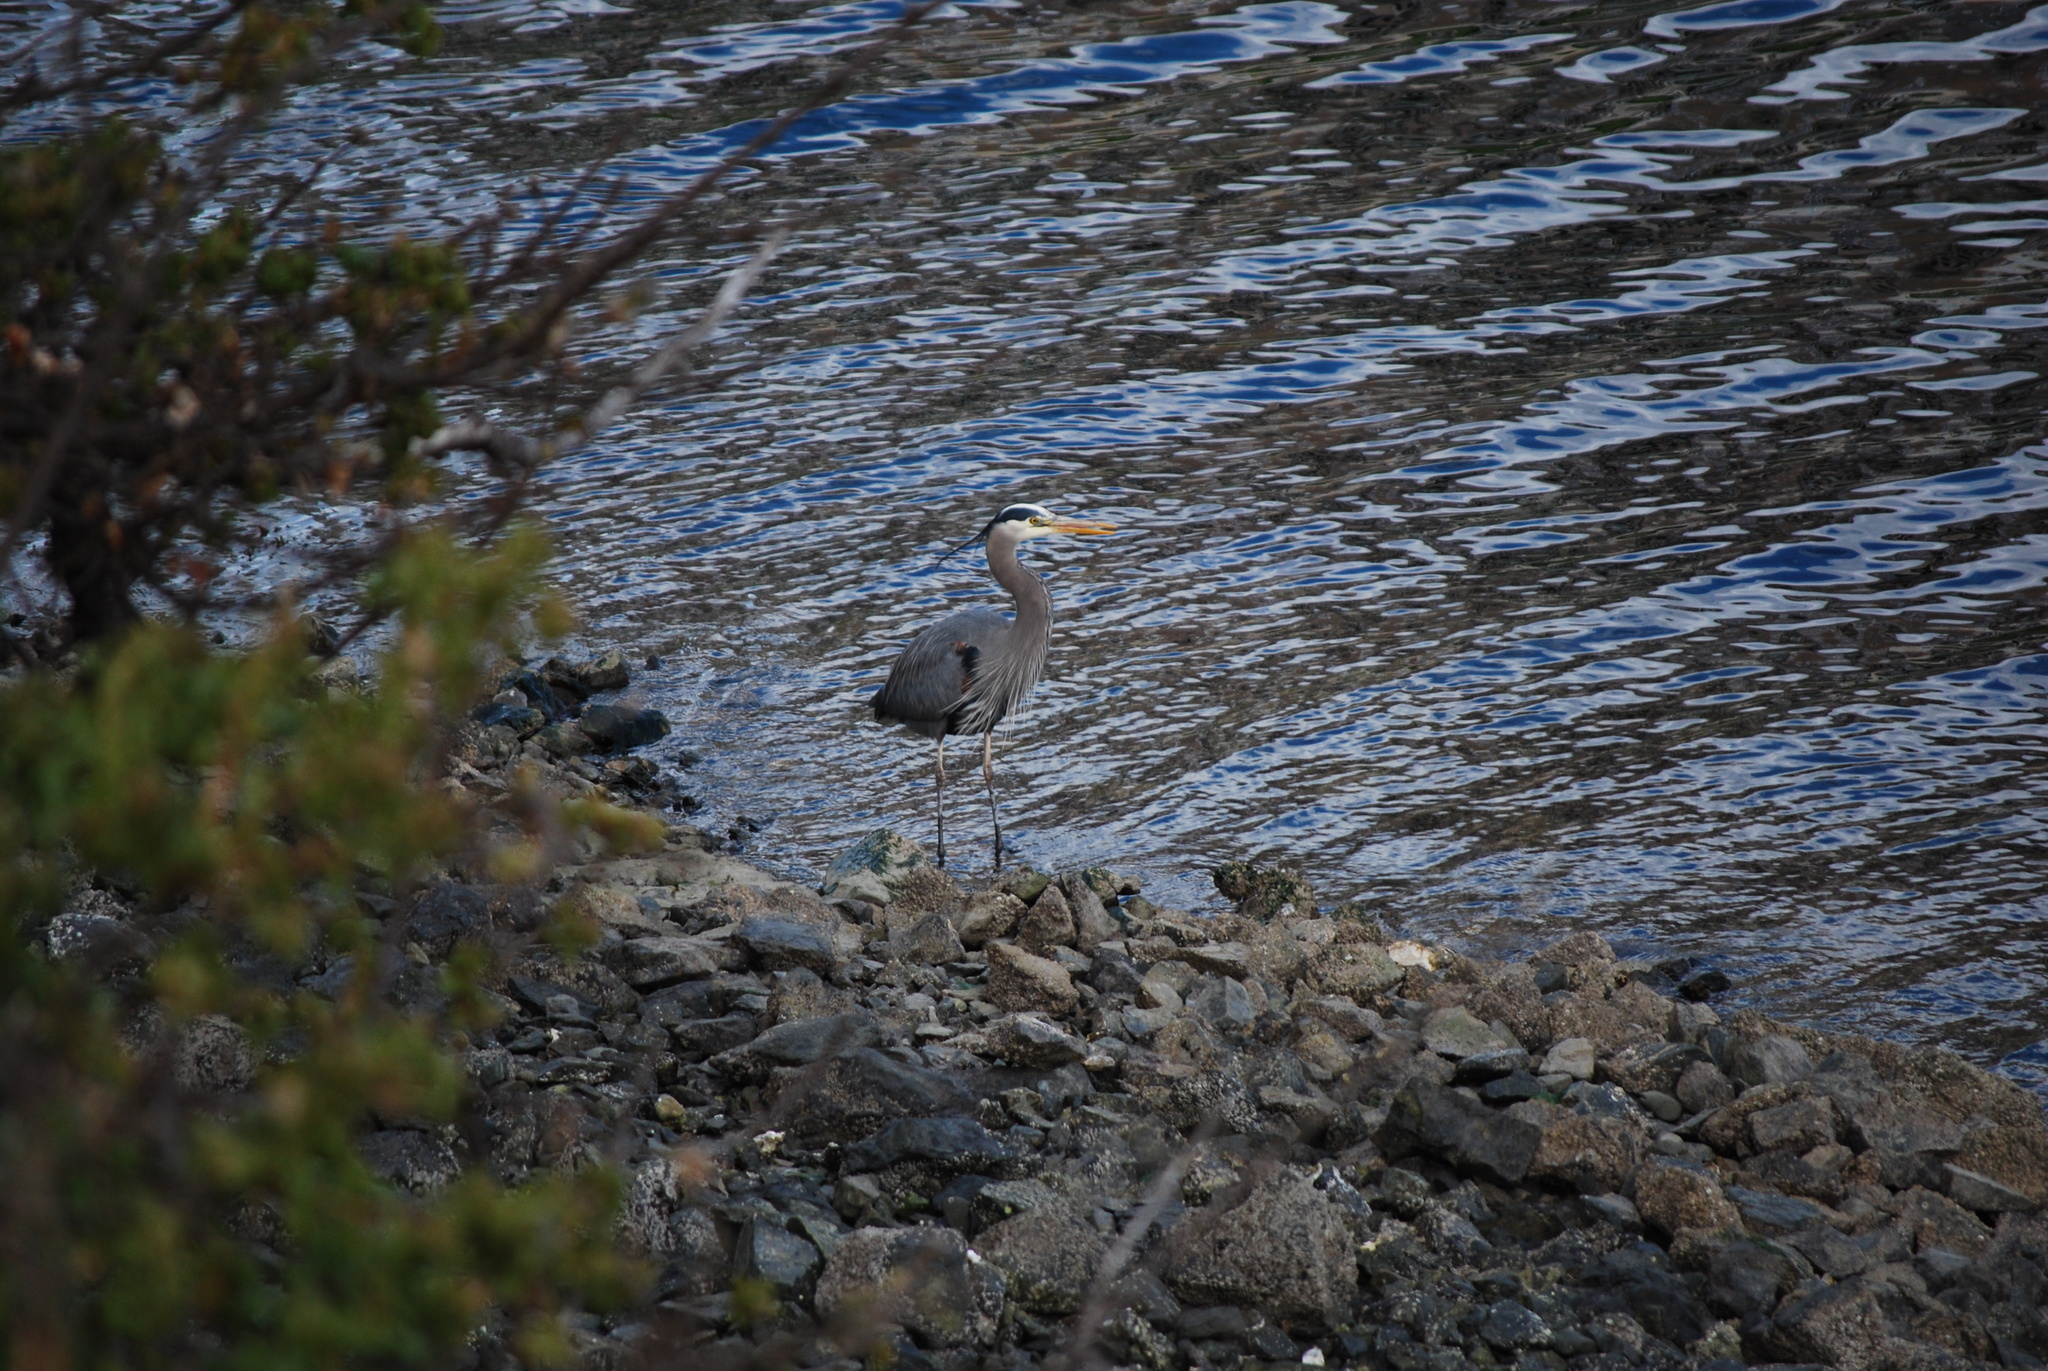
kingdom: Animalia
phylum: Chordata
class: Aves
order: Pelecaniformes
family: Ardeidae
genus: Ardea
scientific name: Ardea herodias
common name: Great blue heron
